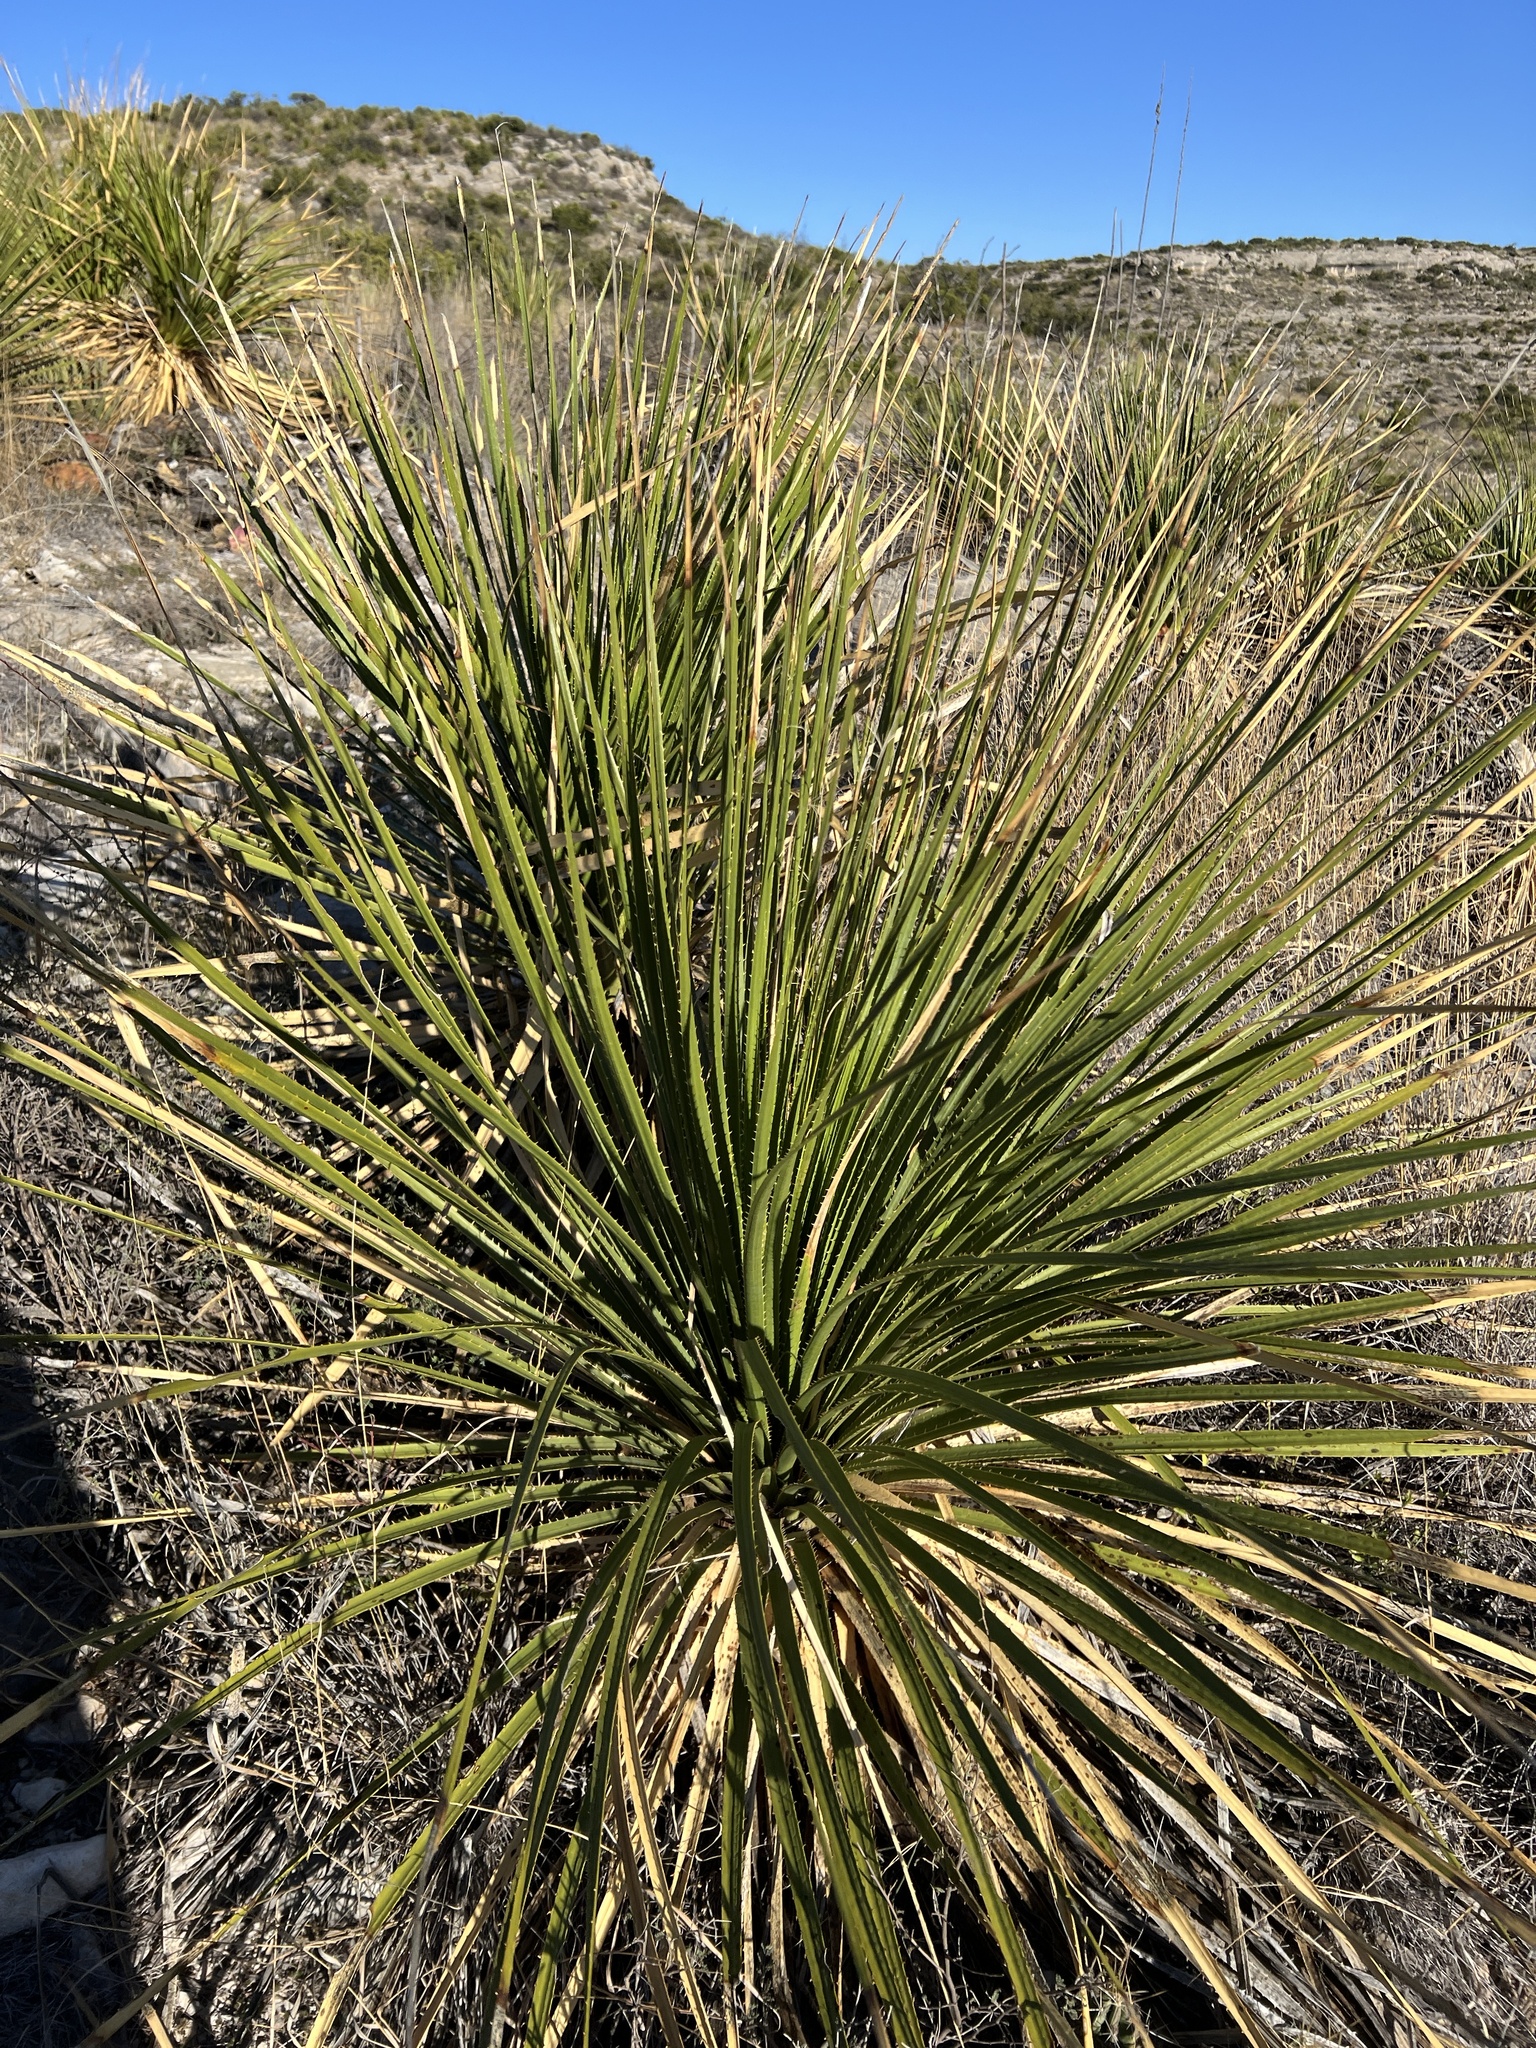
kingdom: Plantae
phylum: Tracheophyta
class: Liliopsida
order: Asparagales
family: Asparagaceae
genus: Dasylirion
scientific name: Dasylirion texanum
